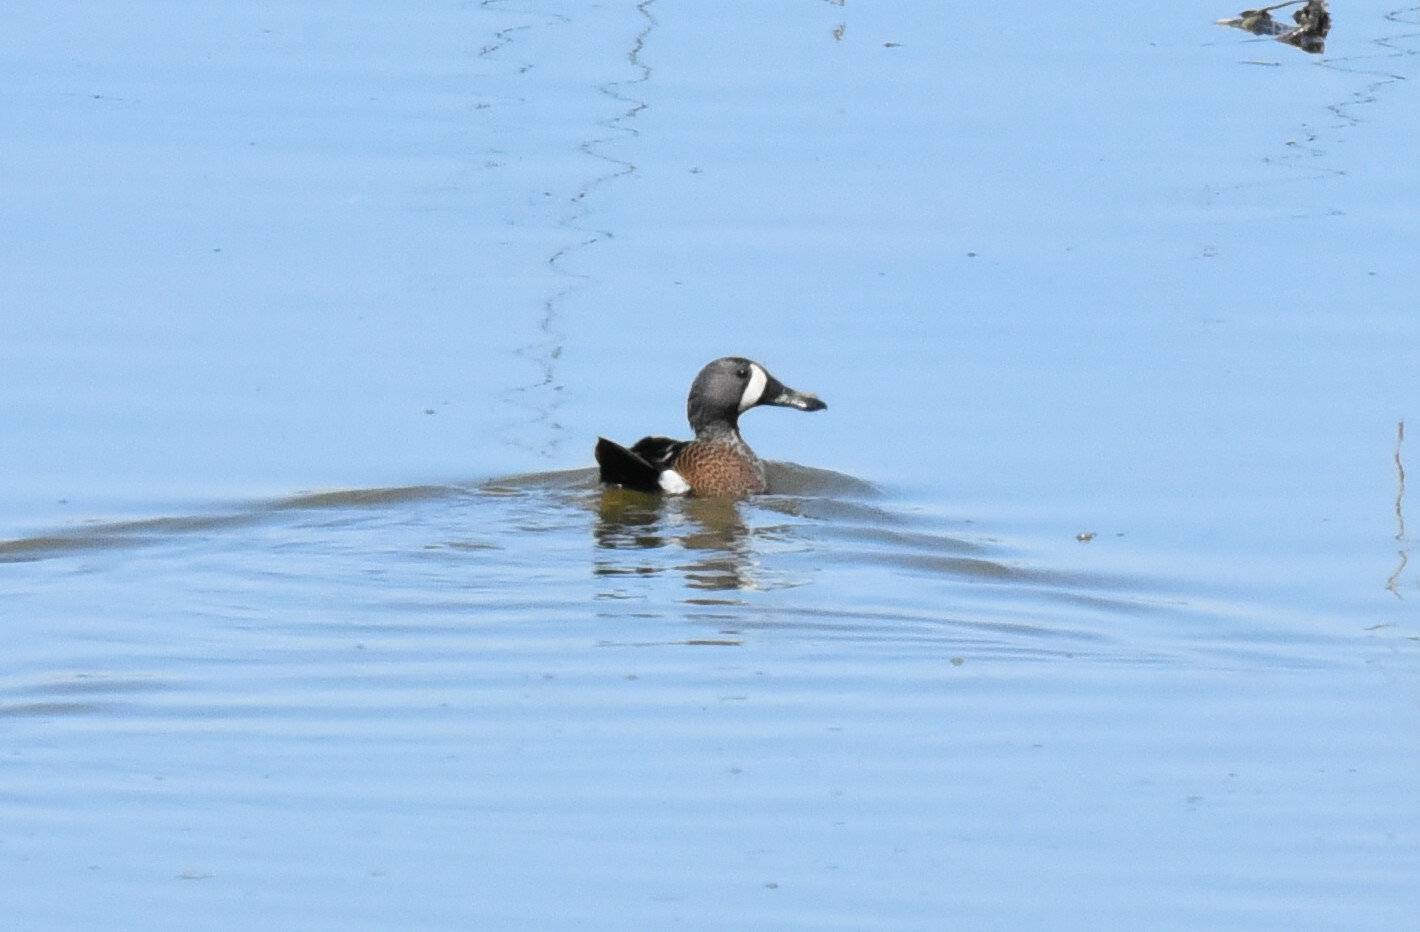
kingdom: Animalia
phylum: Chordata
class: Aves
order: Anseriformes
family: Anatidae
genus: Spatula
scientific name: Spatula discors
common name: Blue-winged teal
